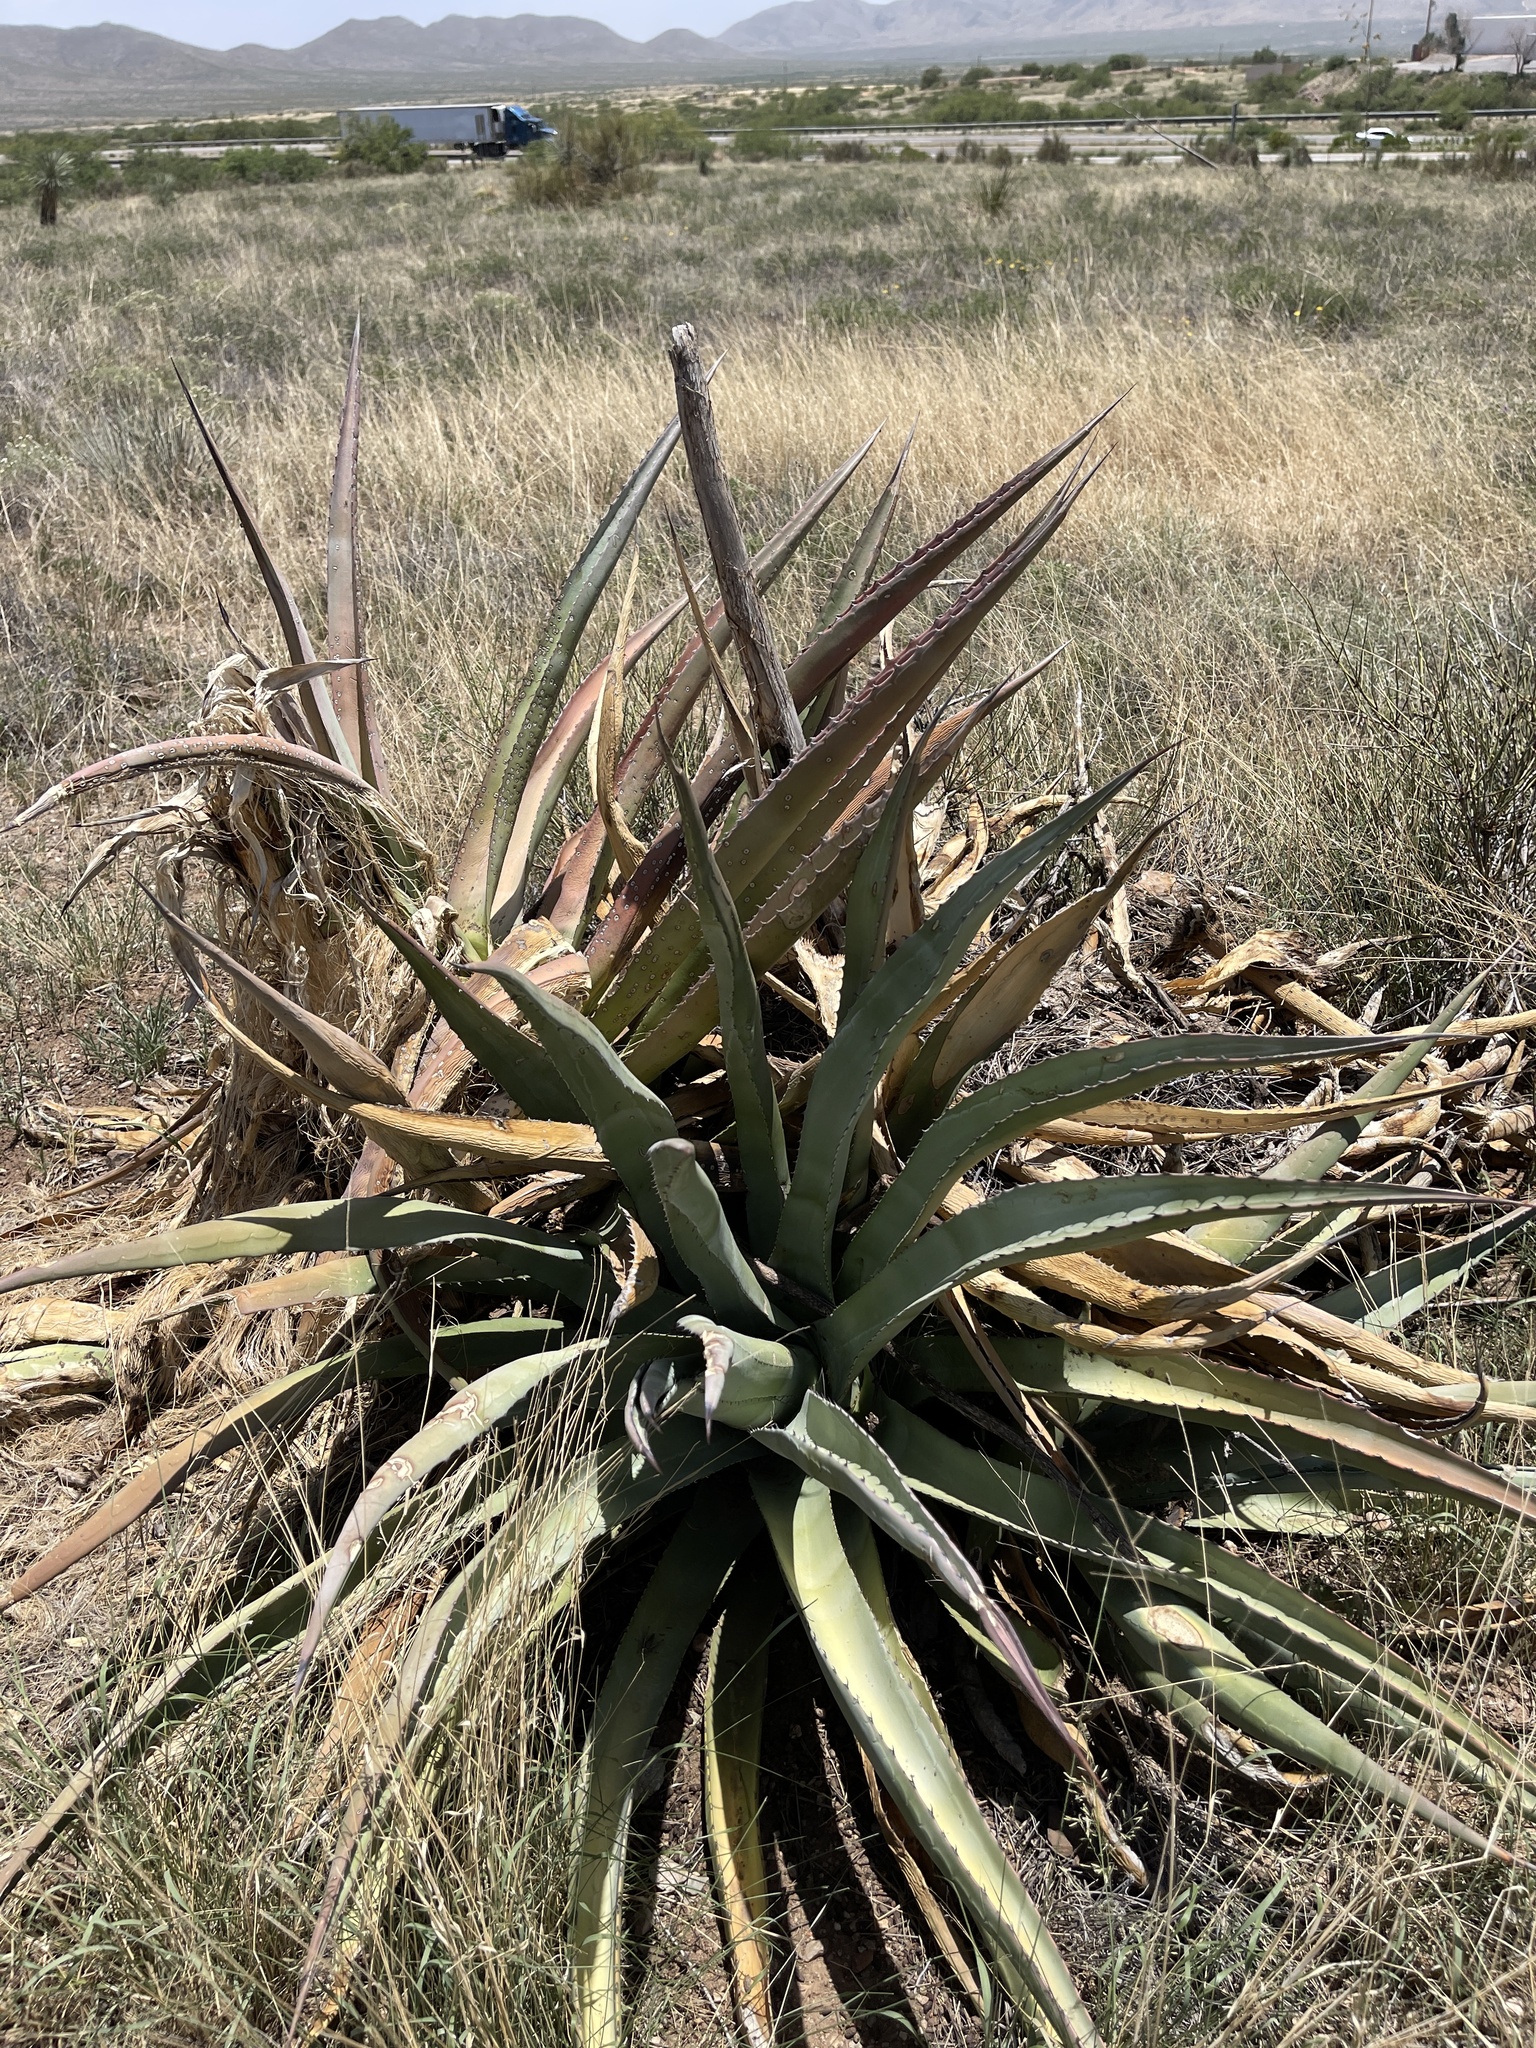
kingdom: Plantae
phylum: Tracheophyta
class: Liliopsida
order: Asparagales
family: Asparagaceae
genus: Agave
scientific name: Agave palmeri
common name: Palmer agave
